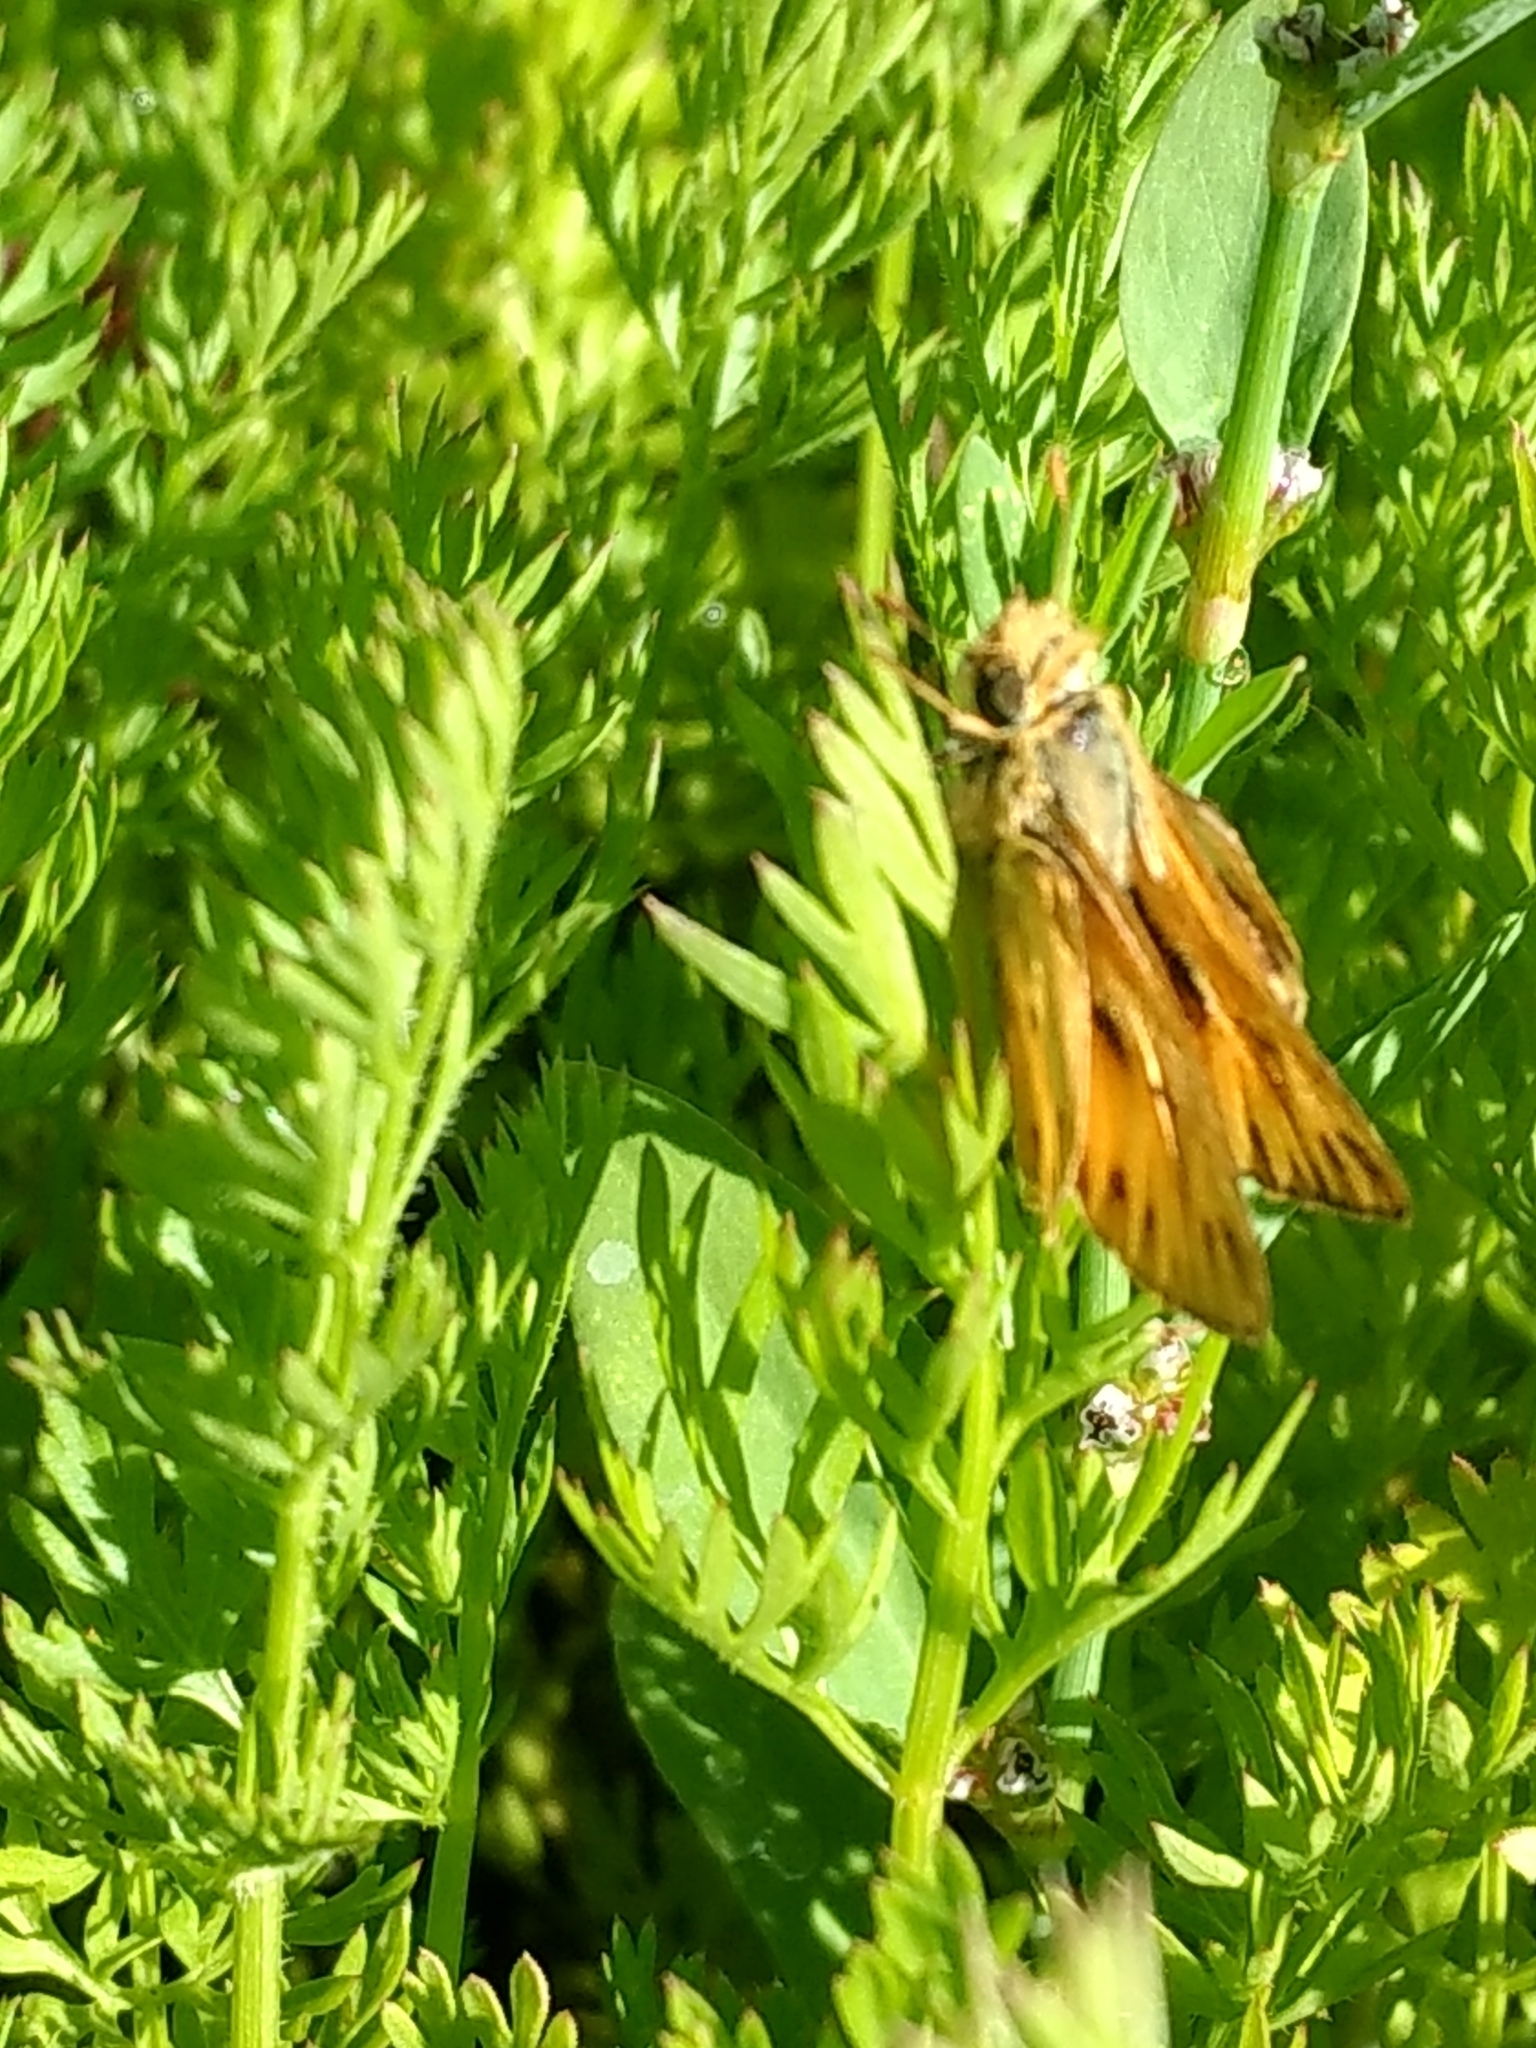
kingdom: Animalia
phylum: Arthropoda
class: Insecta
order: Lepidoptera
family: Hesperiidae
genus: Hylephila
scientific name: Hylephila phyleus
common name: Fiery skipper
